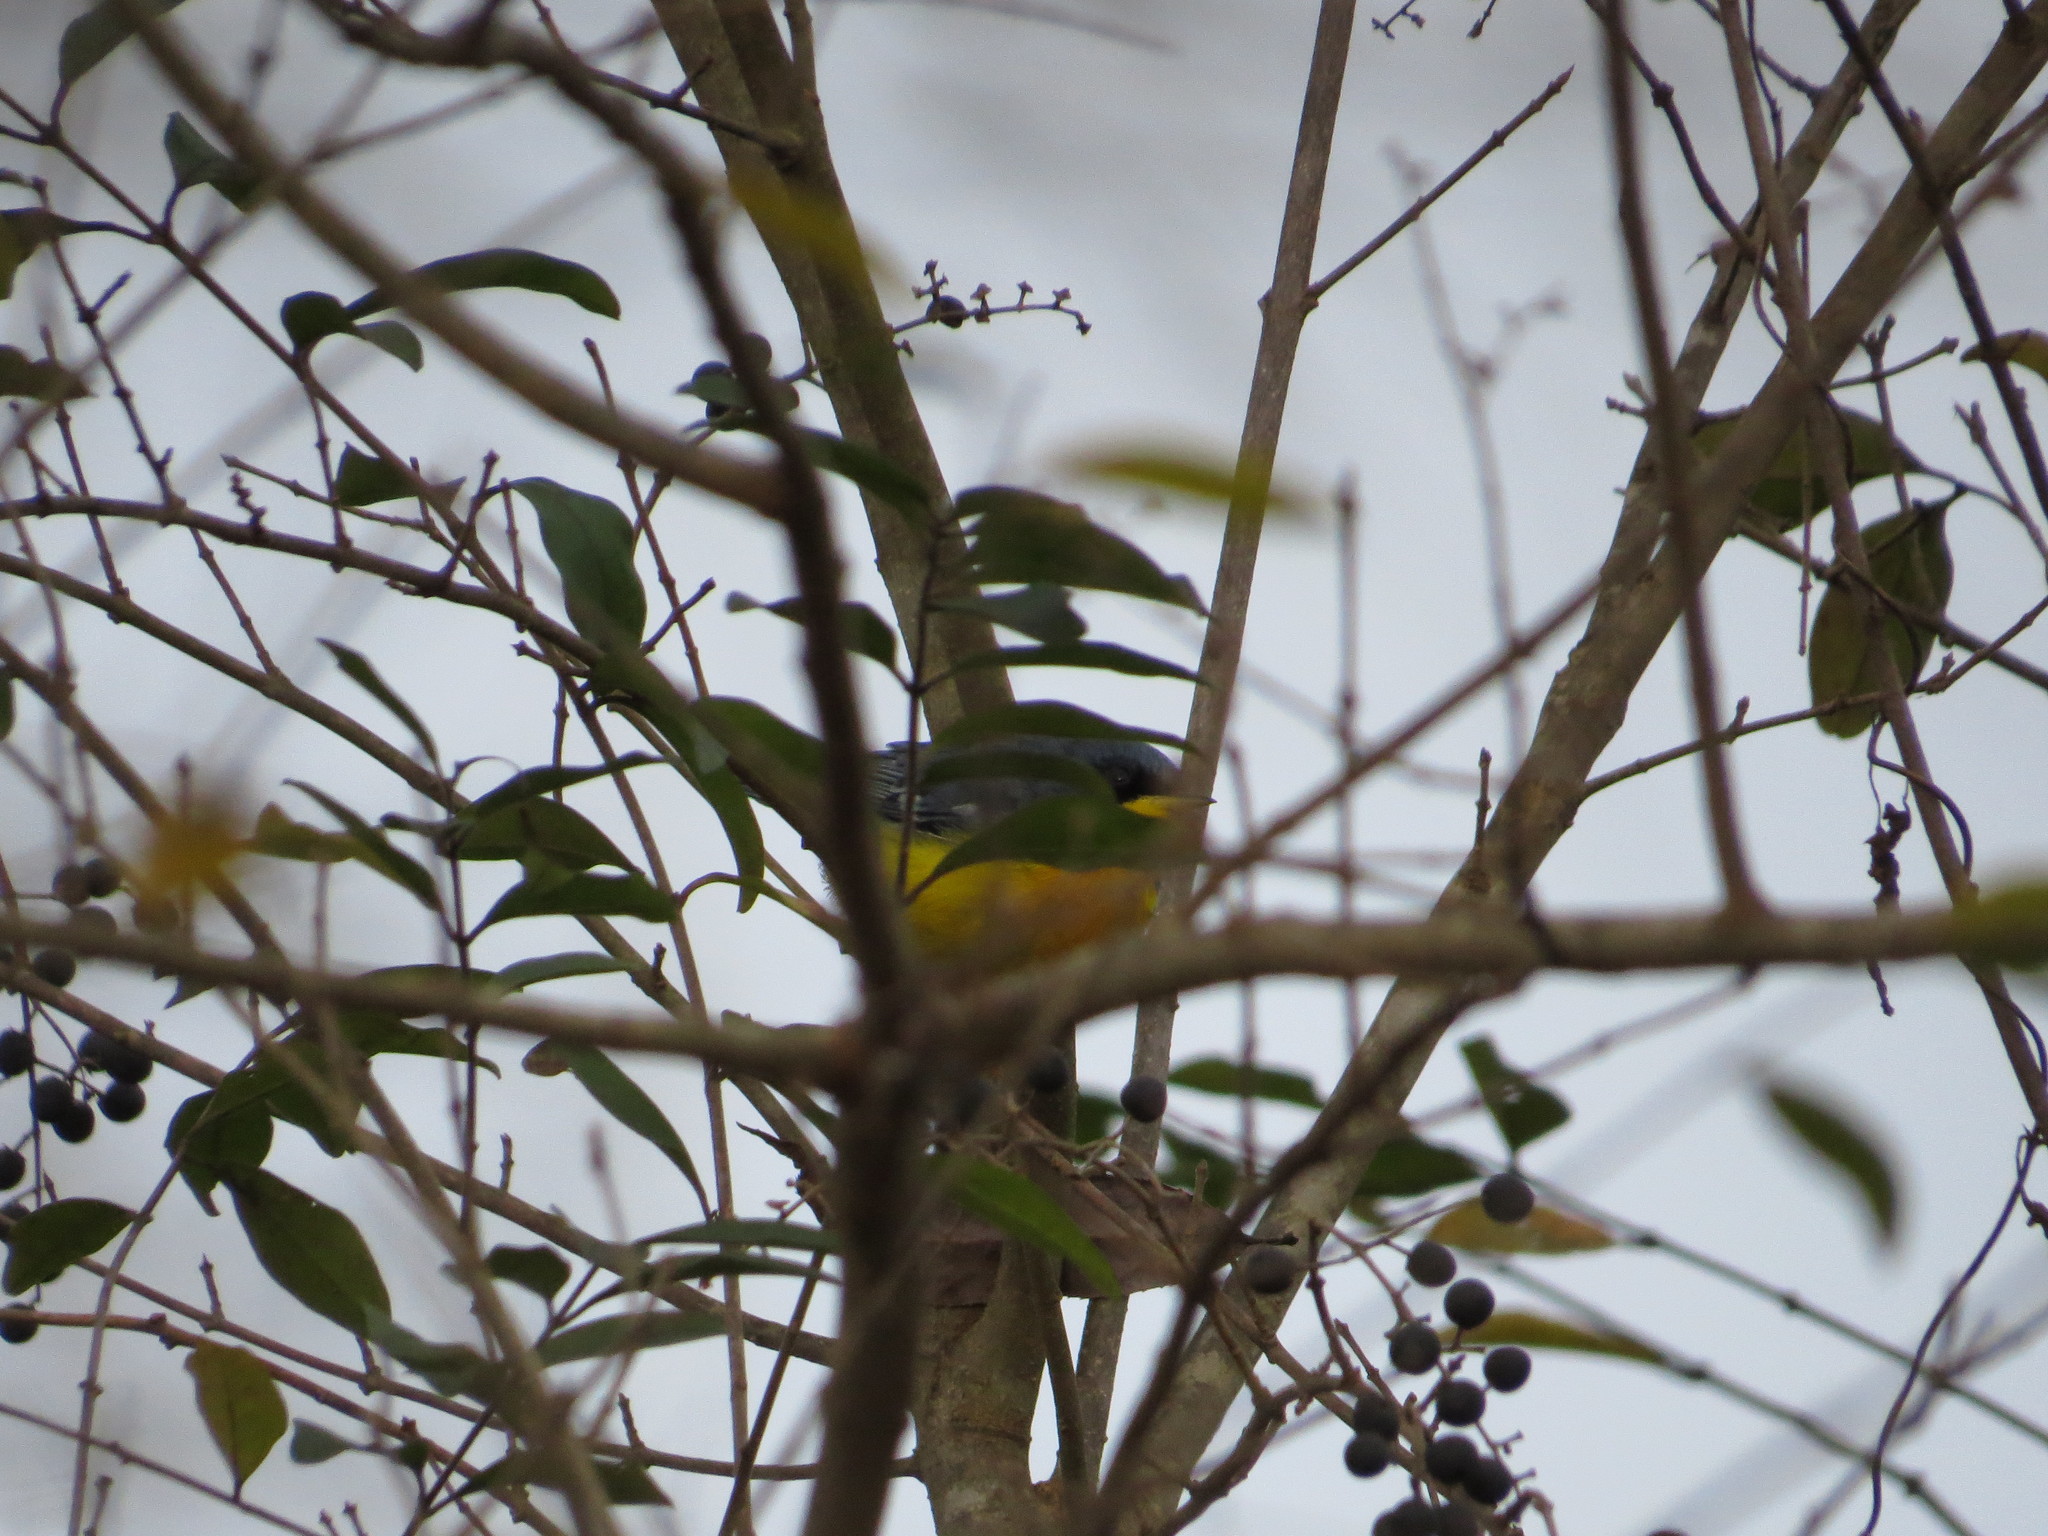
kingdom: Animalia
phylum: Chordata
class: Aves
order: Passeriformes
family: Parulidae
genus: Setophaga
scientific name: Setophaga pitiayumi
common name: Tropical parula
